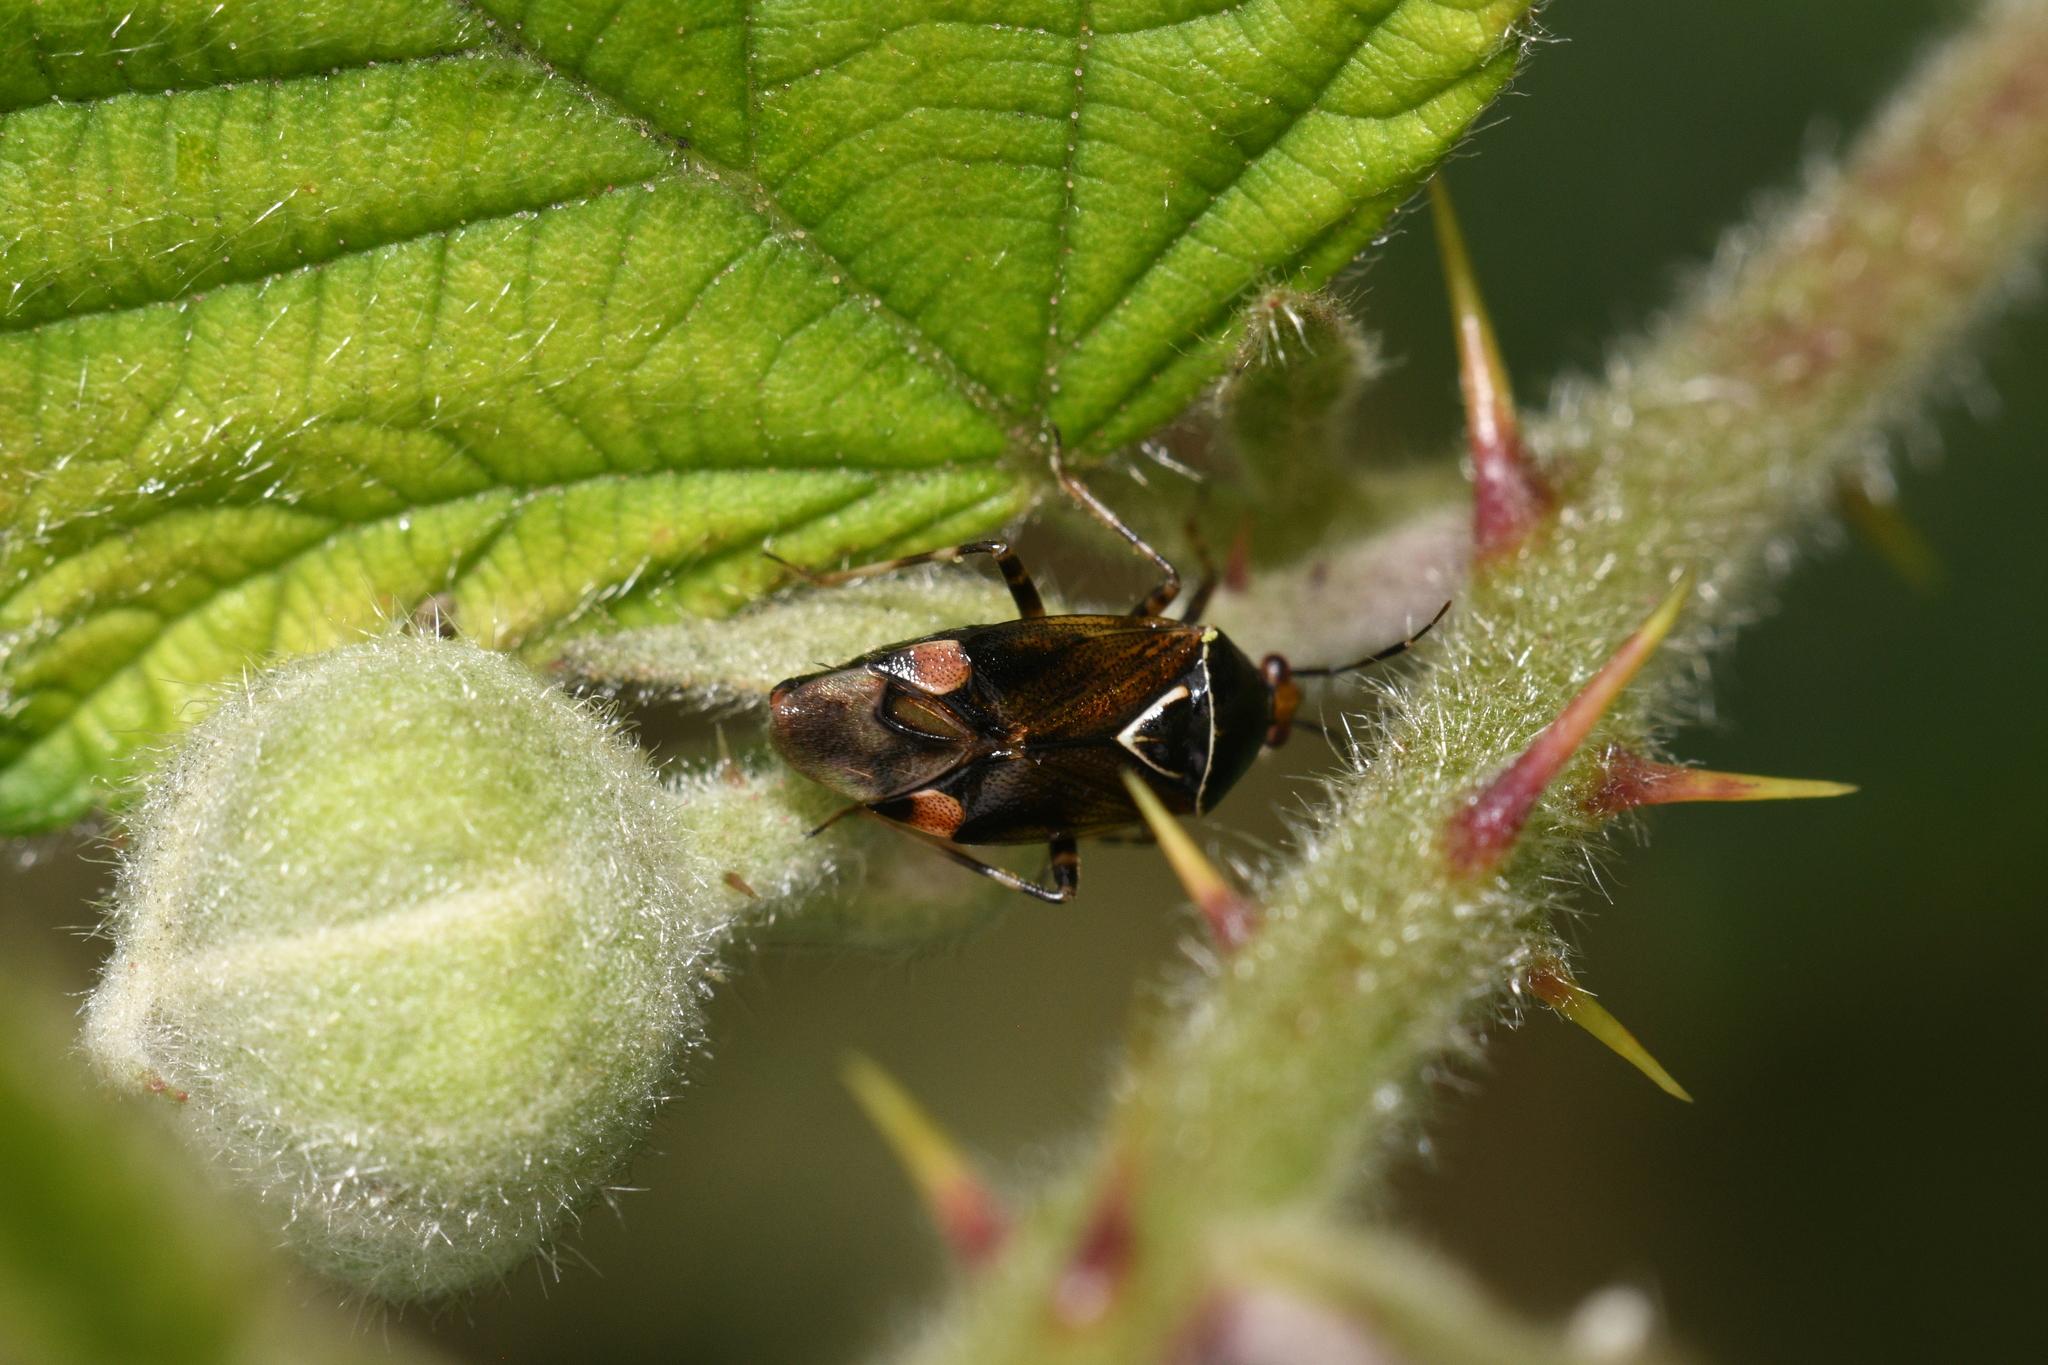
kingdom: Animalia
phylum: Arthropoda
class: Insecta
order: Hemiptera
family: Miridae
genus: Deraeocoris
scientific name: Deraeocoris flavilinea
